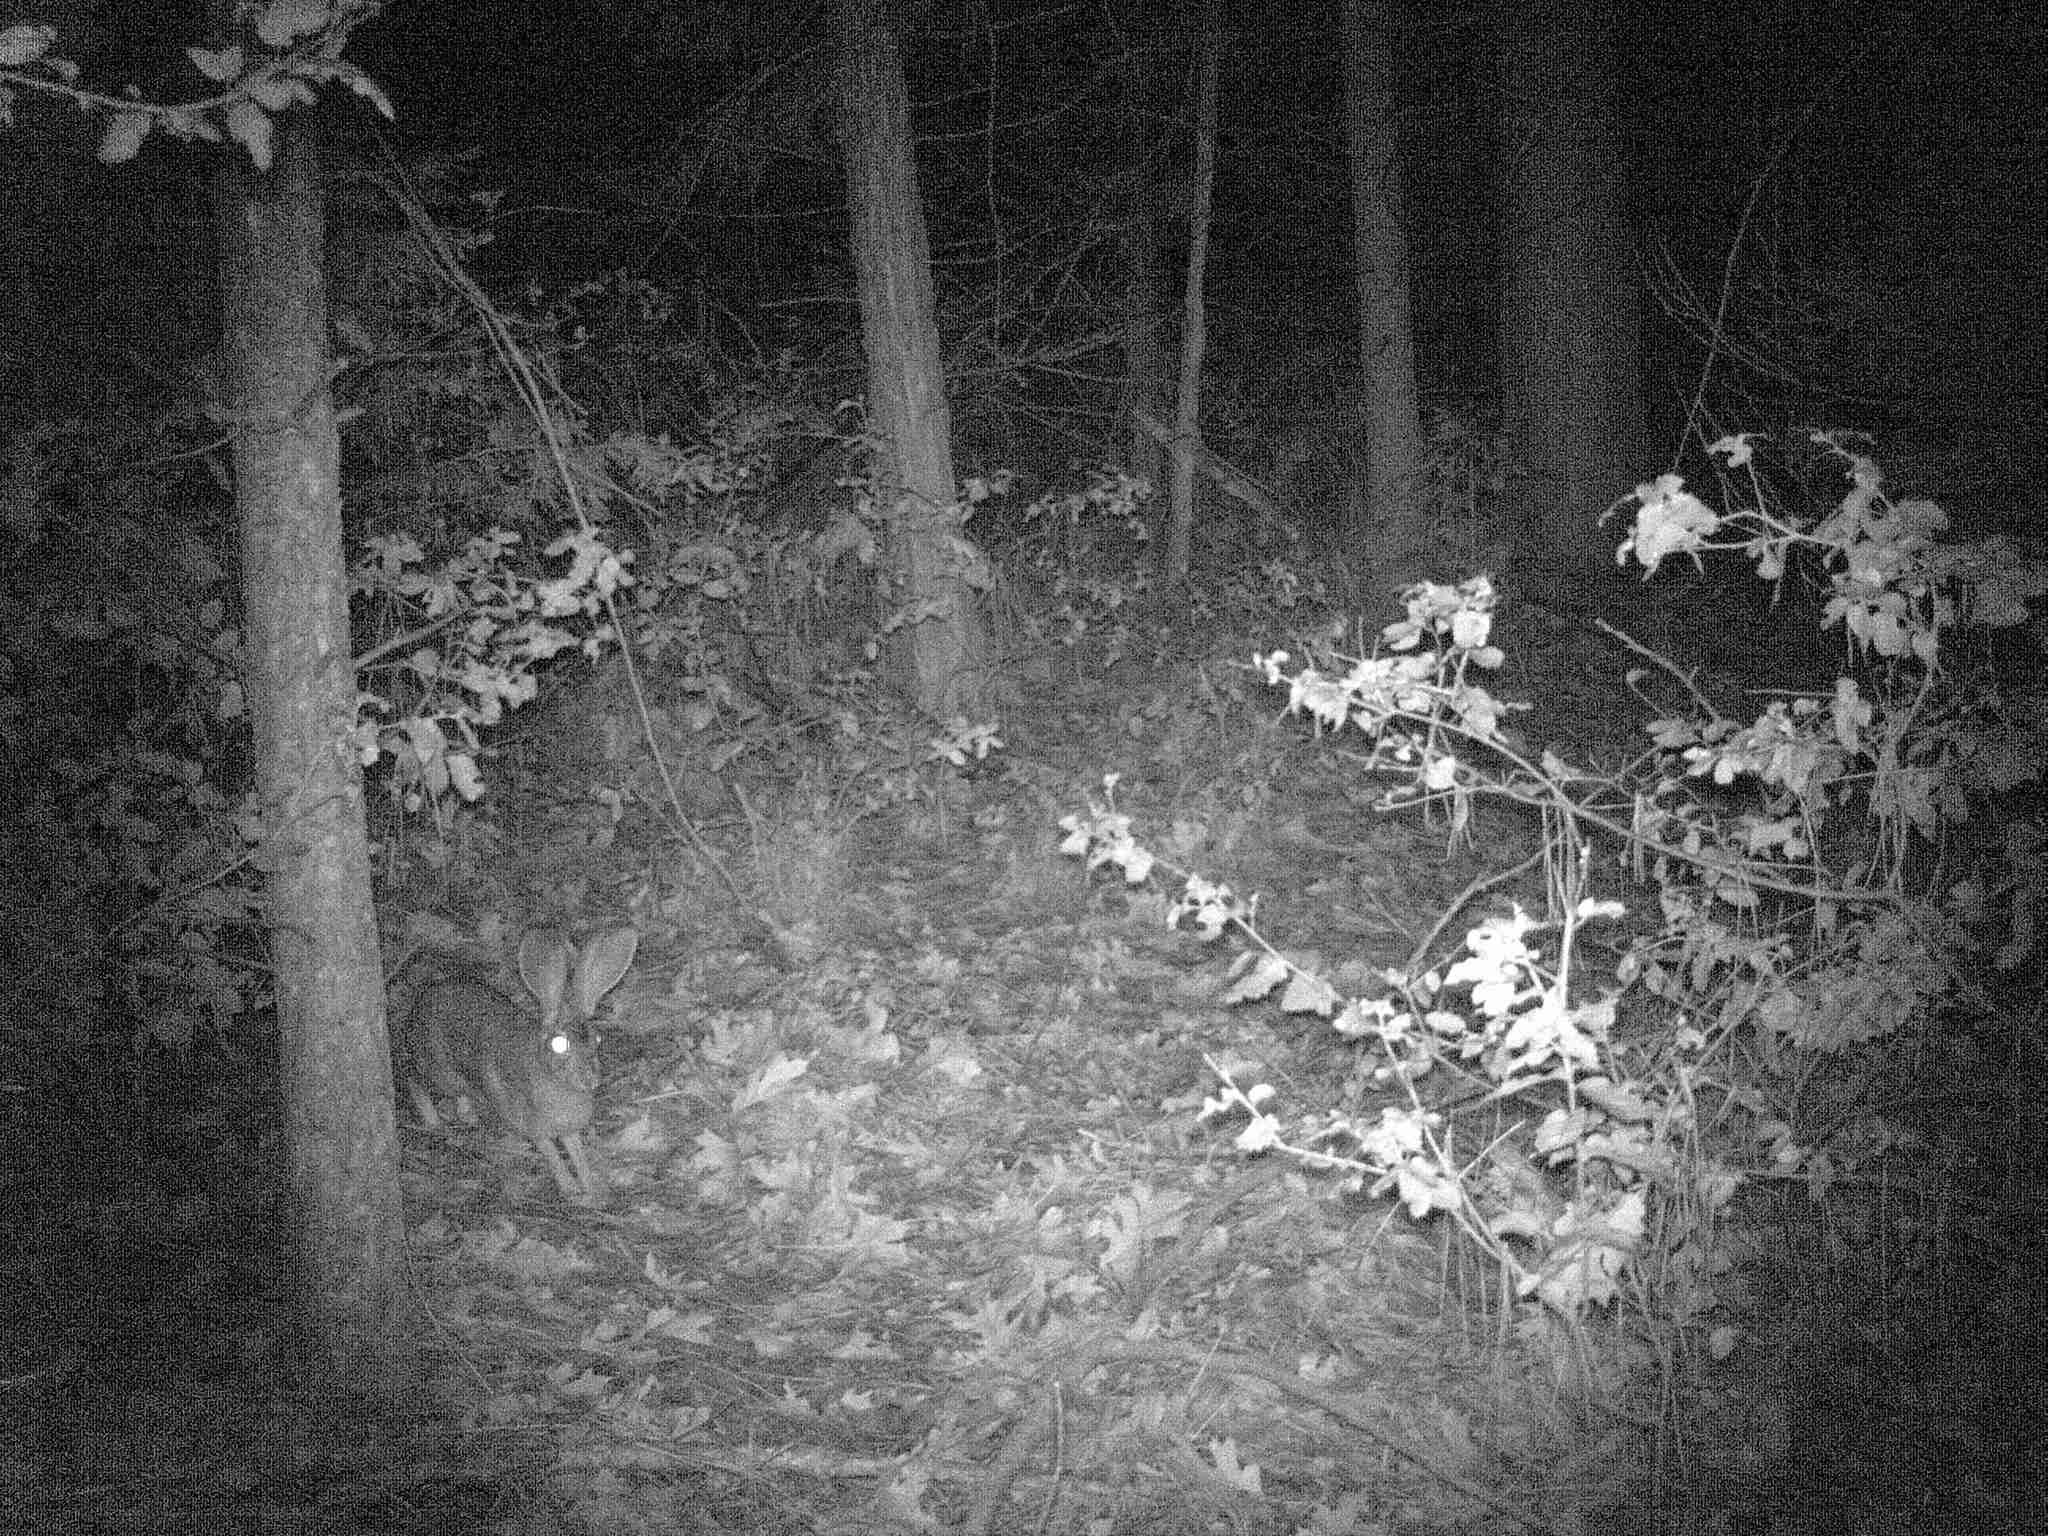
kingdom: Animalia
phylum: Chordata
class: Mammalia
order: Lagomorpha
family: Leporidae
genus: Lepus
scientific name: Lepus californicus
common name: Black-tailed jackrabbit
